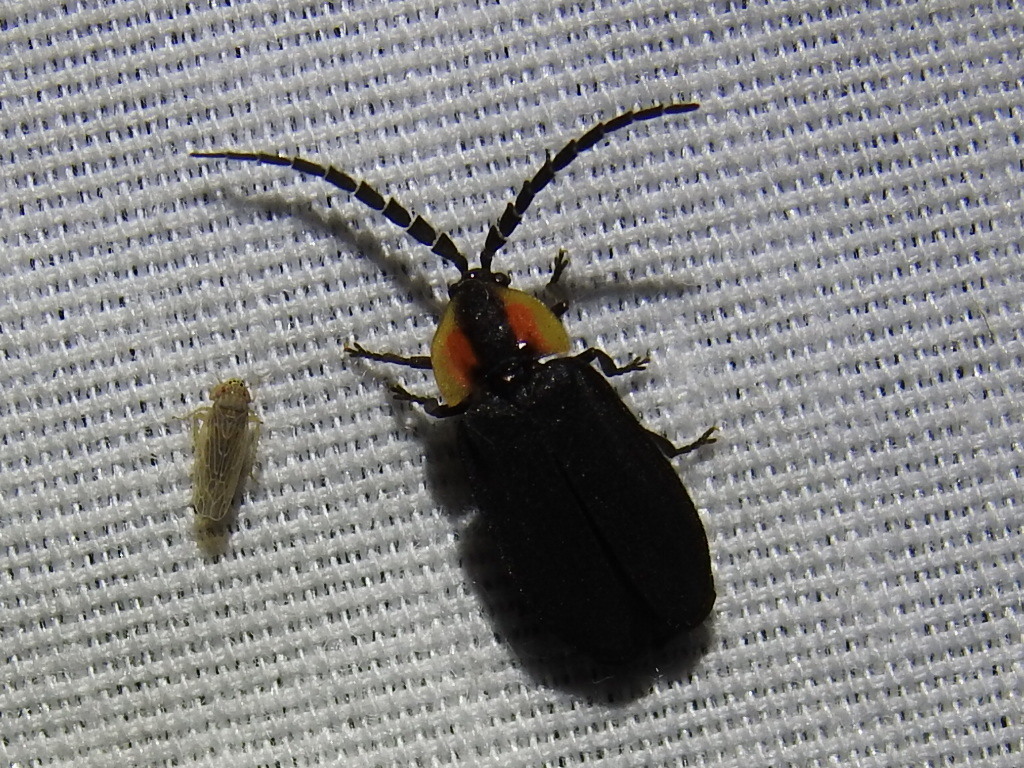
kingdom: Animalia
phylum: Arthropoda
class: Insecta
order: Coleoptera
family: Lampyridae
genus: Lucidota
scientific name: Lucidota atra
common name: Black firefly
